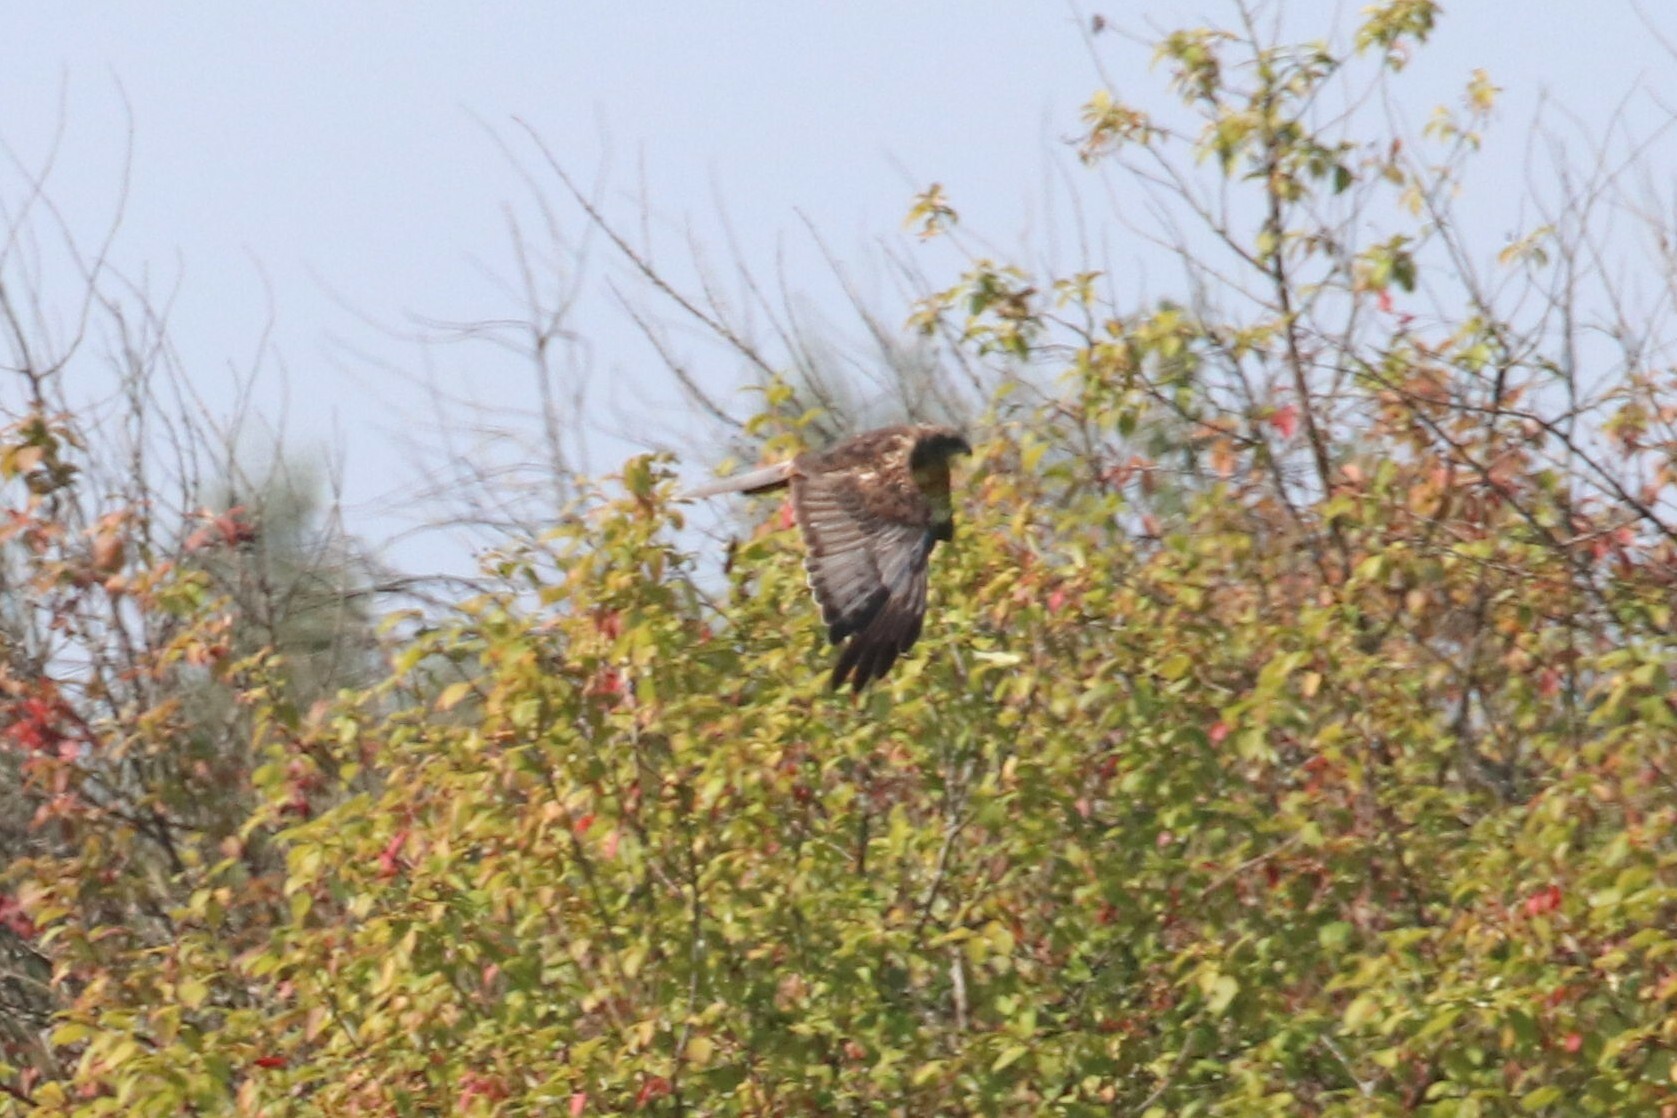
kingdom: Animalia
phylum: Chordata
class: Aves
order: Accipitriformes
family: Accipitridae
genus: Circus
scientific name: Circus aeruginosus
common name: Western marsh harrier
